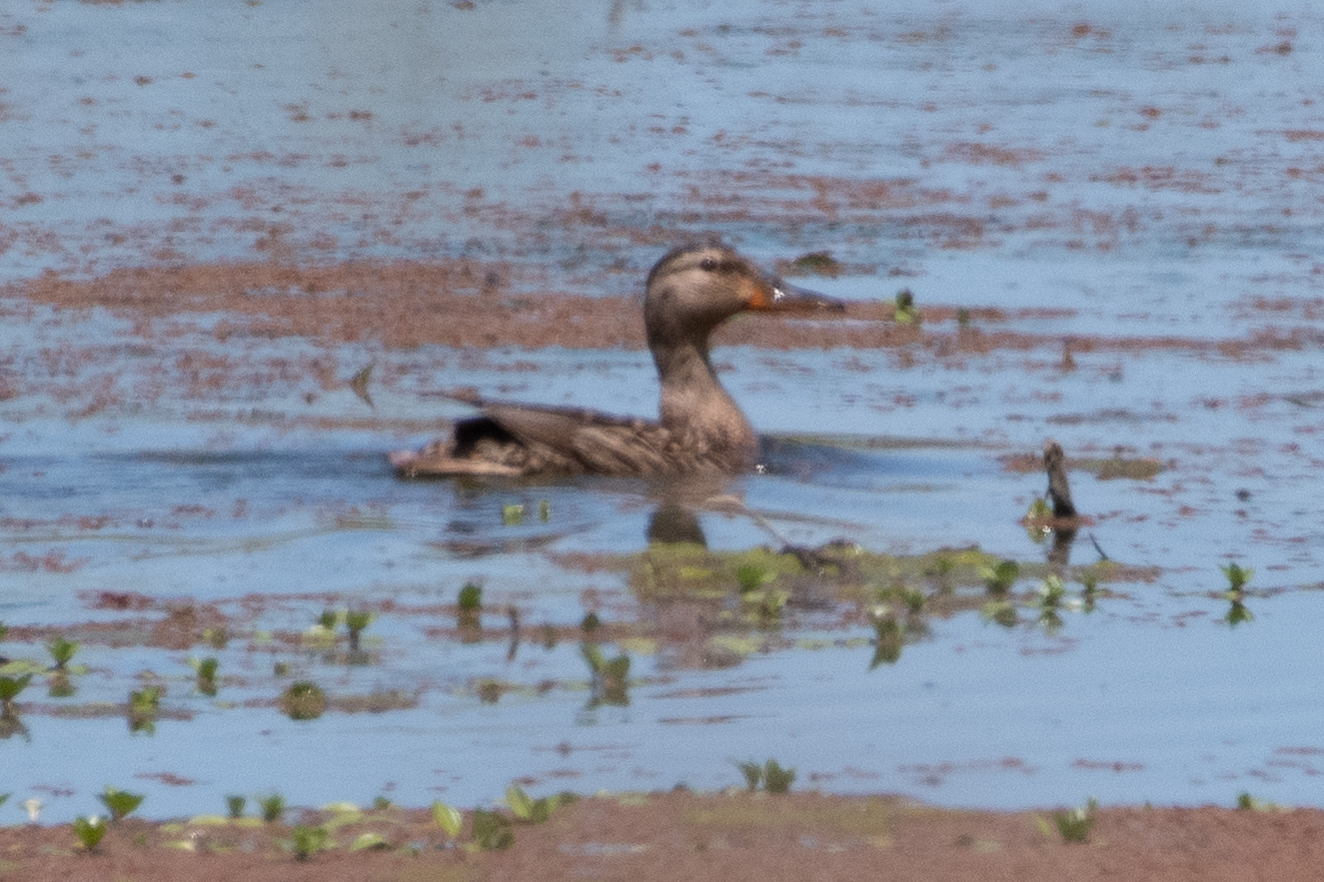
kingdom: Animalia
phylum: Chordata
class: Aves
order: Anseriformes
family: Anatidae
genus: Anas
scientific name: Anas platyrhynchos
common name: Mallard
